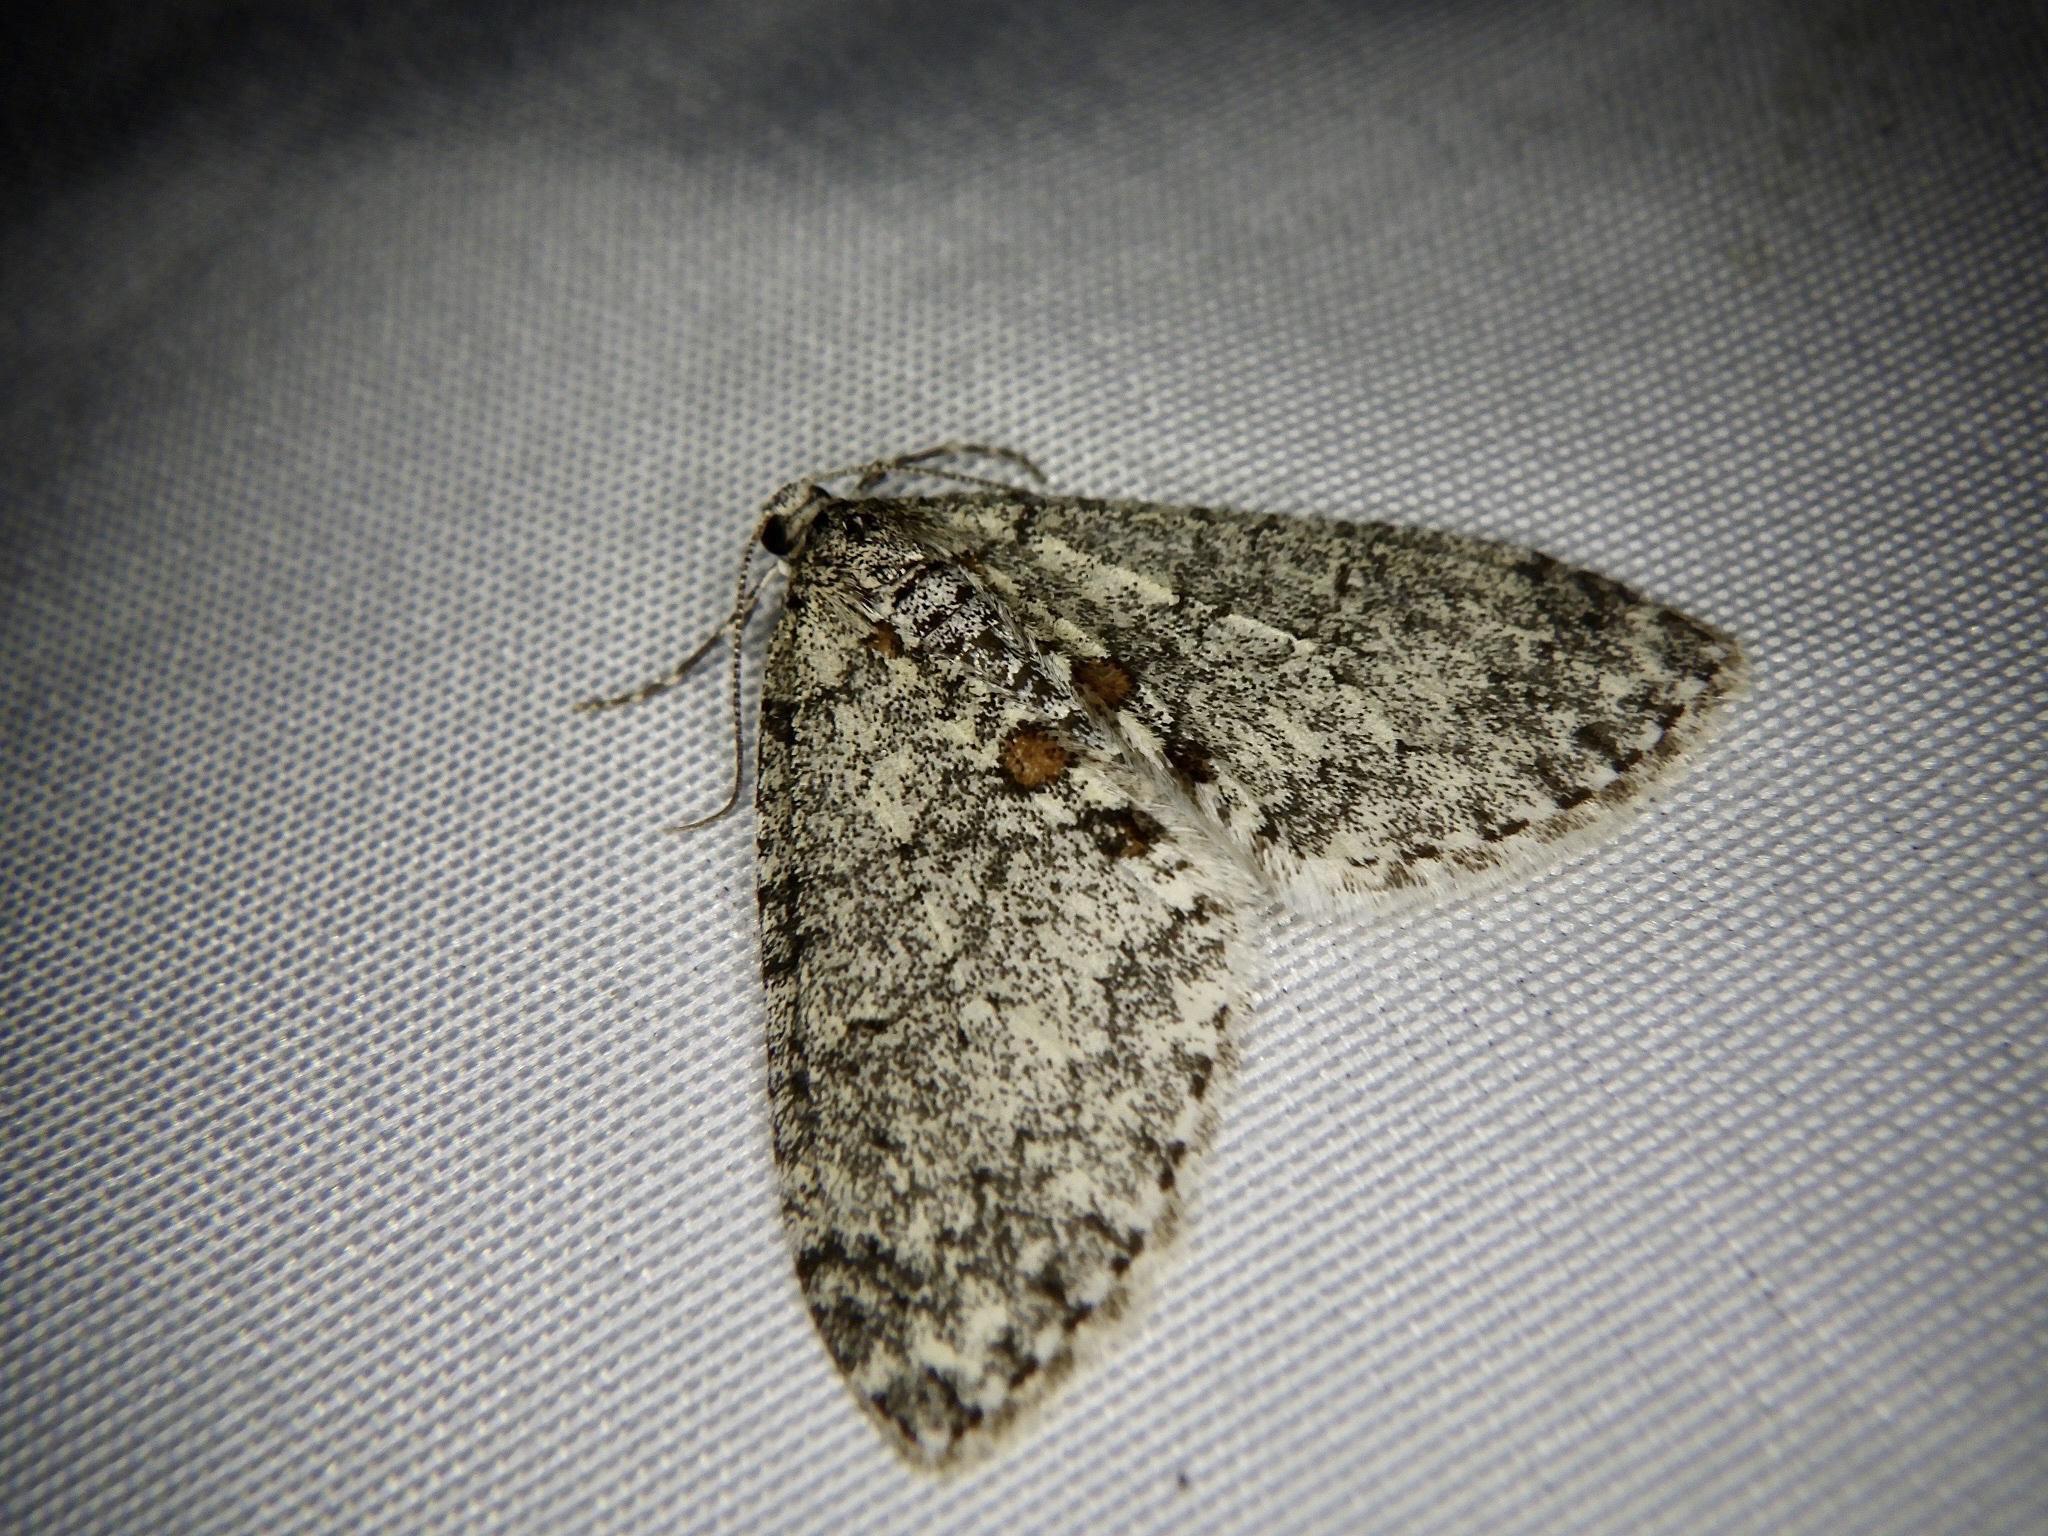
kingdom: Animalia
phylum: Arthropoda
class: Insecta
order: Lepidoptera
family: Geometridae
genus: Trichopteryx
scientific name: Trichopteryx hemana
